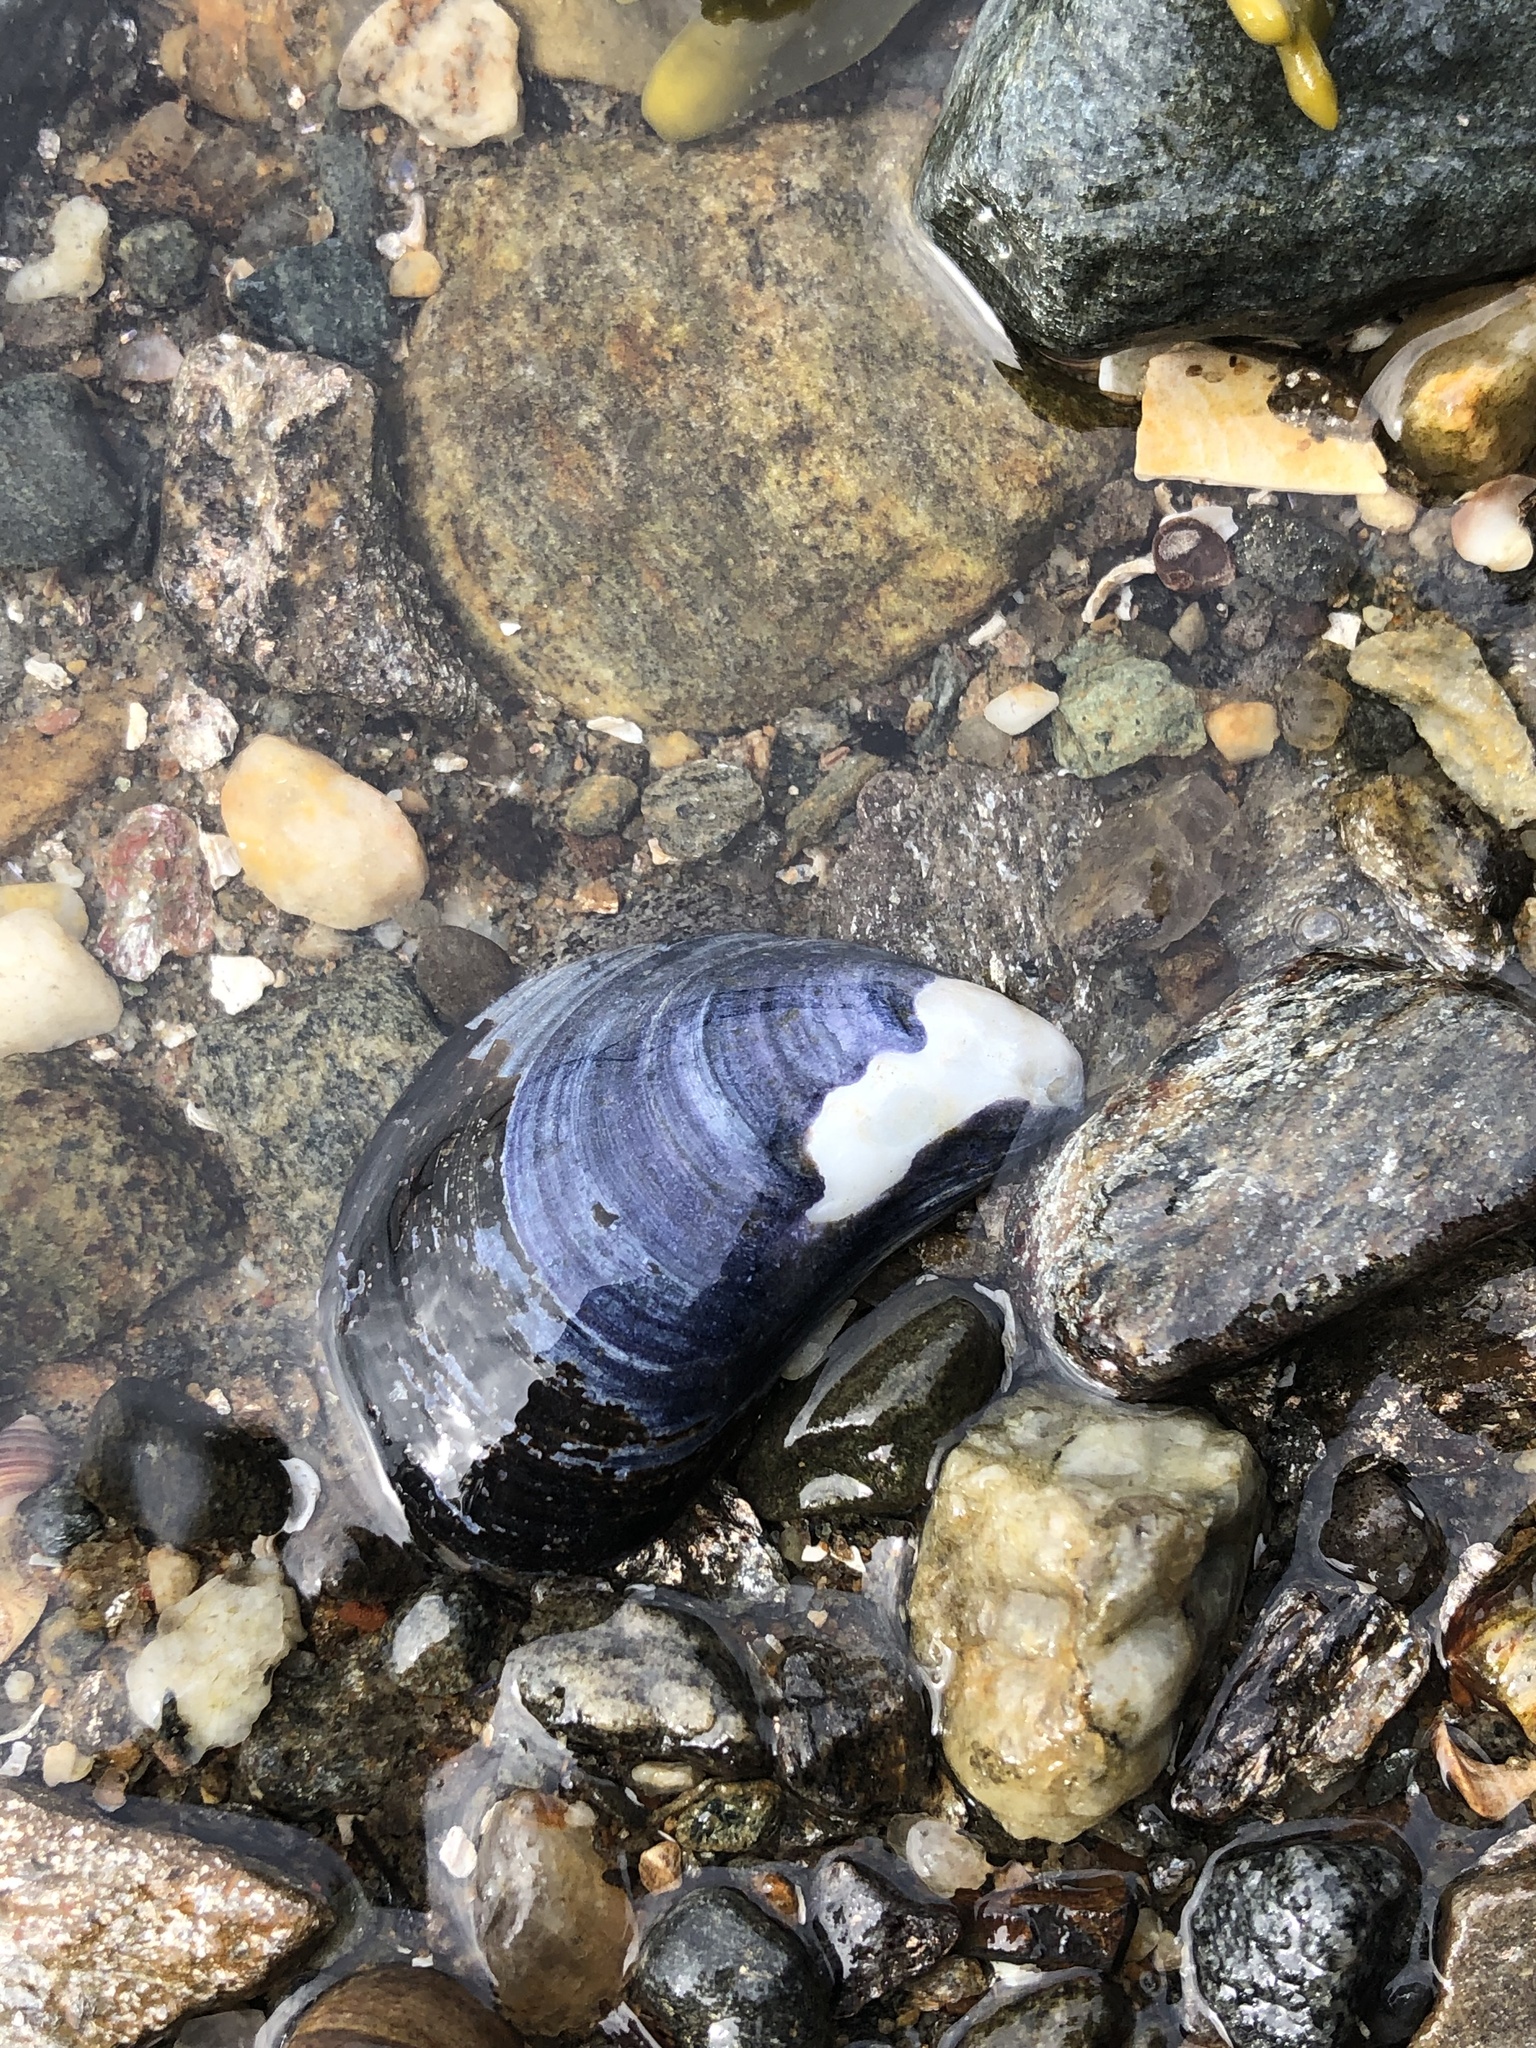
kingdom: Animalia
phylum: Mollusca
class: Bivalvia
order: Mytilida
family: Mytilidae
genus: Mytilus
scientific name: Mytilus edulis
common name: Blue mussel
